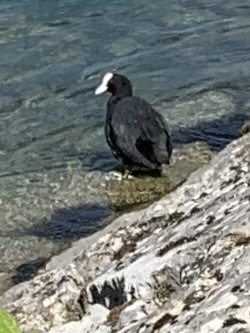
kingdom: Animalia
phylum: Chordata
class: Aves
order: Gruiformes
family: Rallidae
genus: Fulica
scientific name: Fulica atra
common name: Eurasian coot
